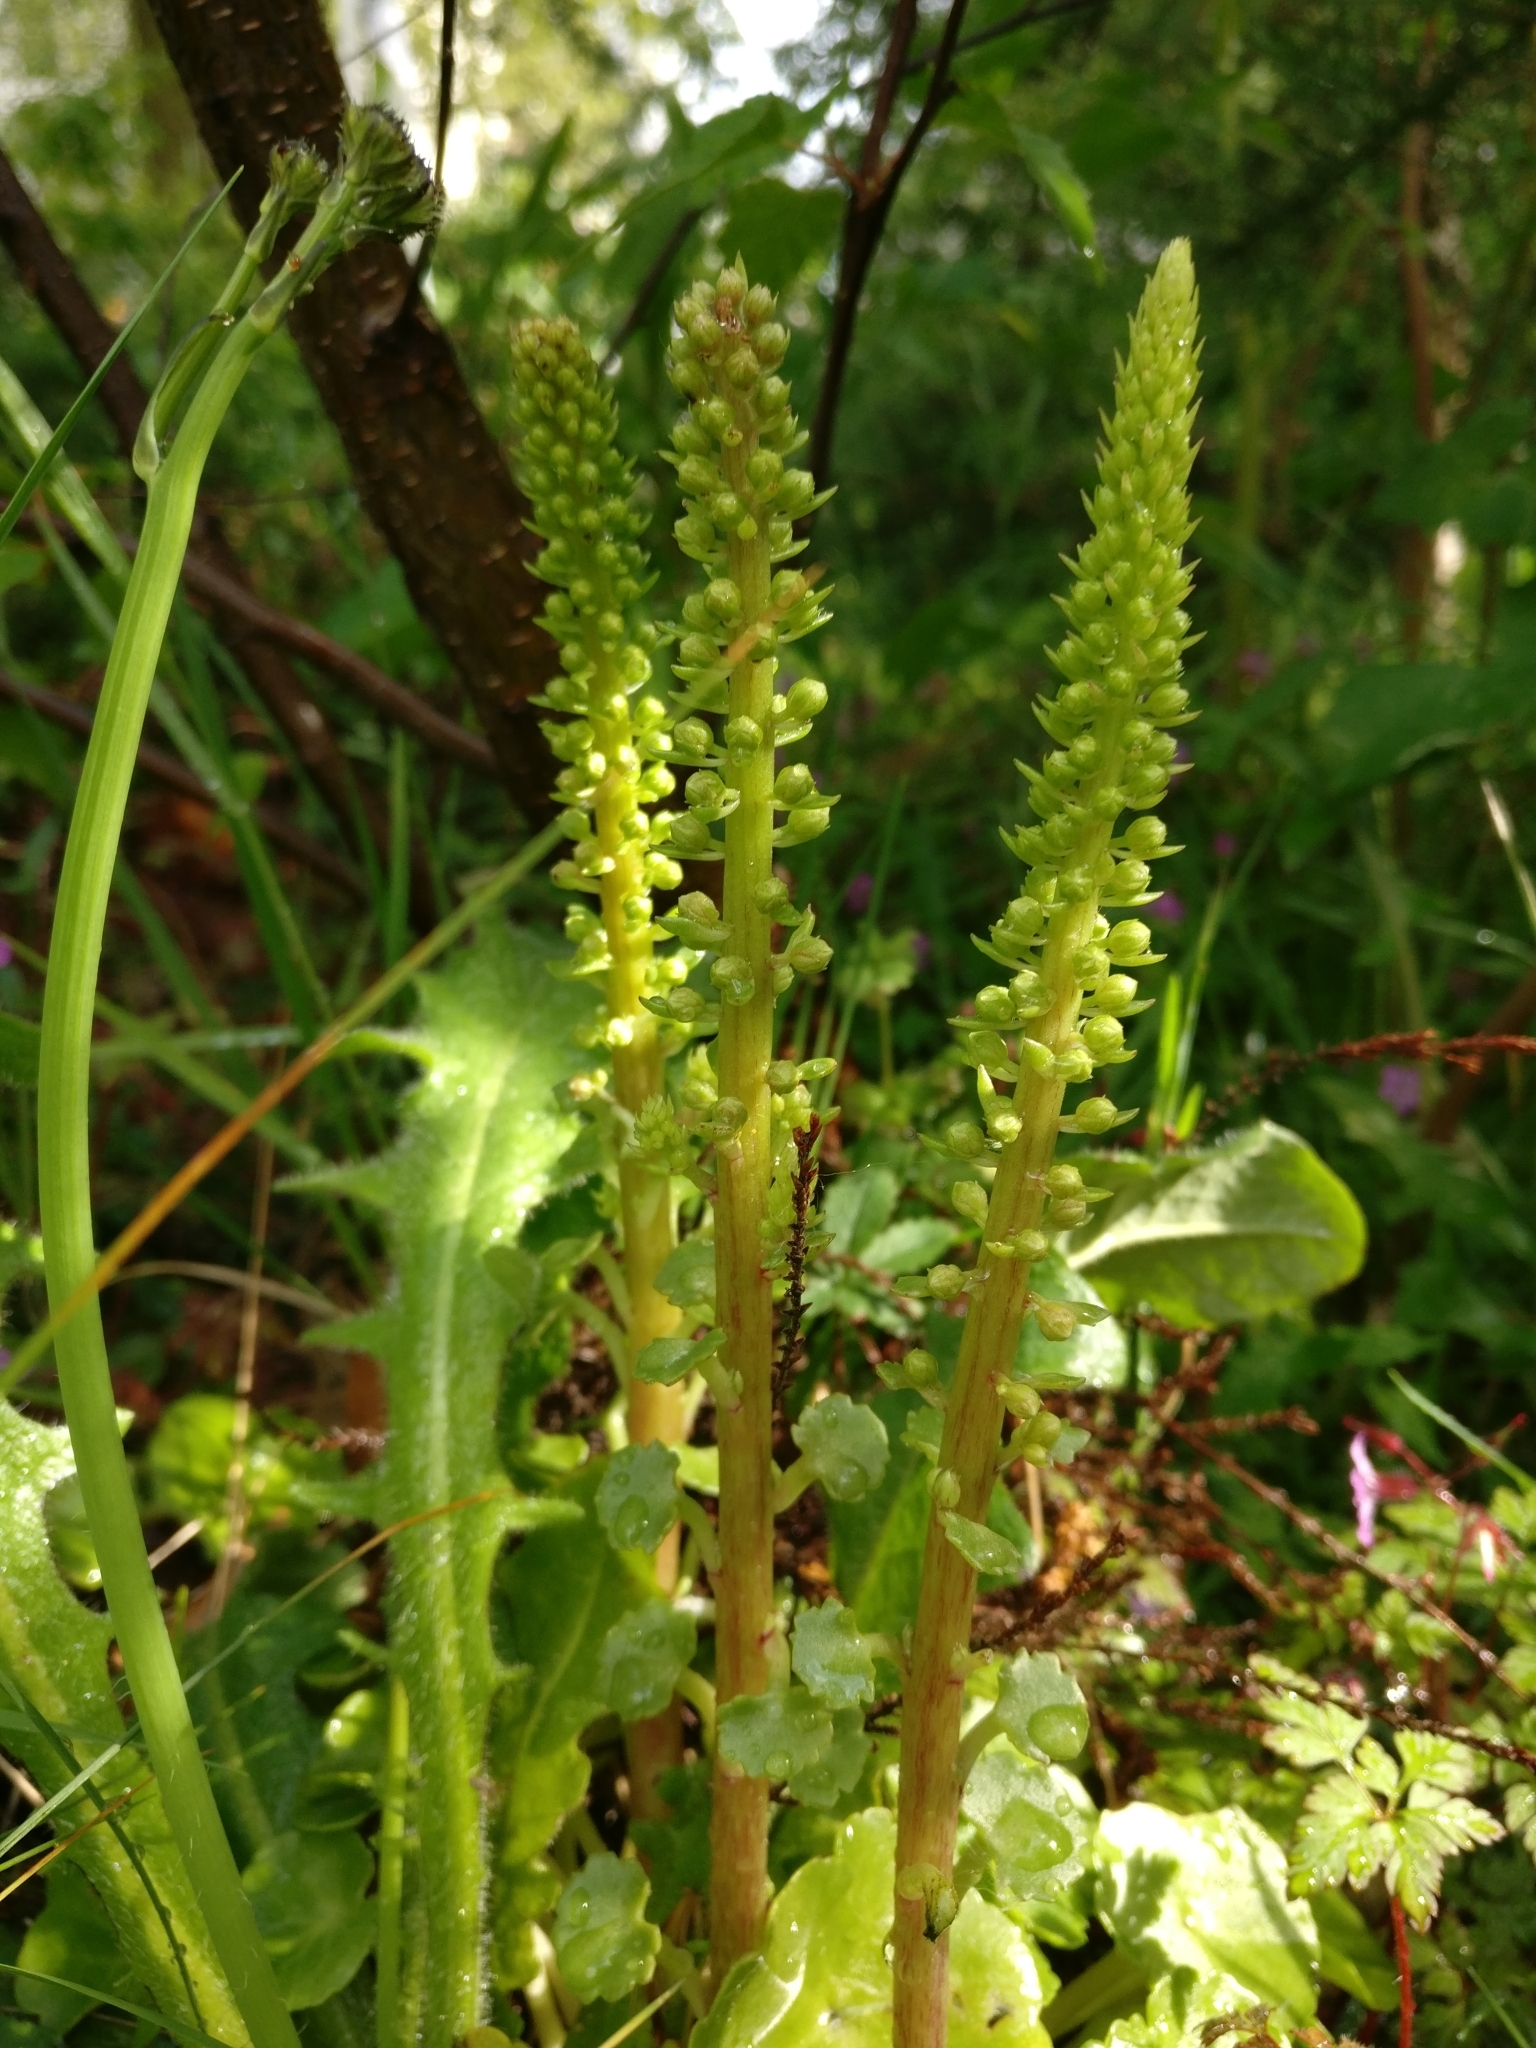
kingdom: Plantae
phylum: Tracheophyta
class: Magnoliopsida
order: Saxifragales
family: Crassulaceae
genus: Umbilicus
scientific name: Umbilicus rupestris
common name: Navelwort
